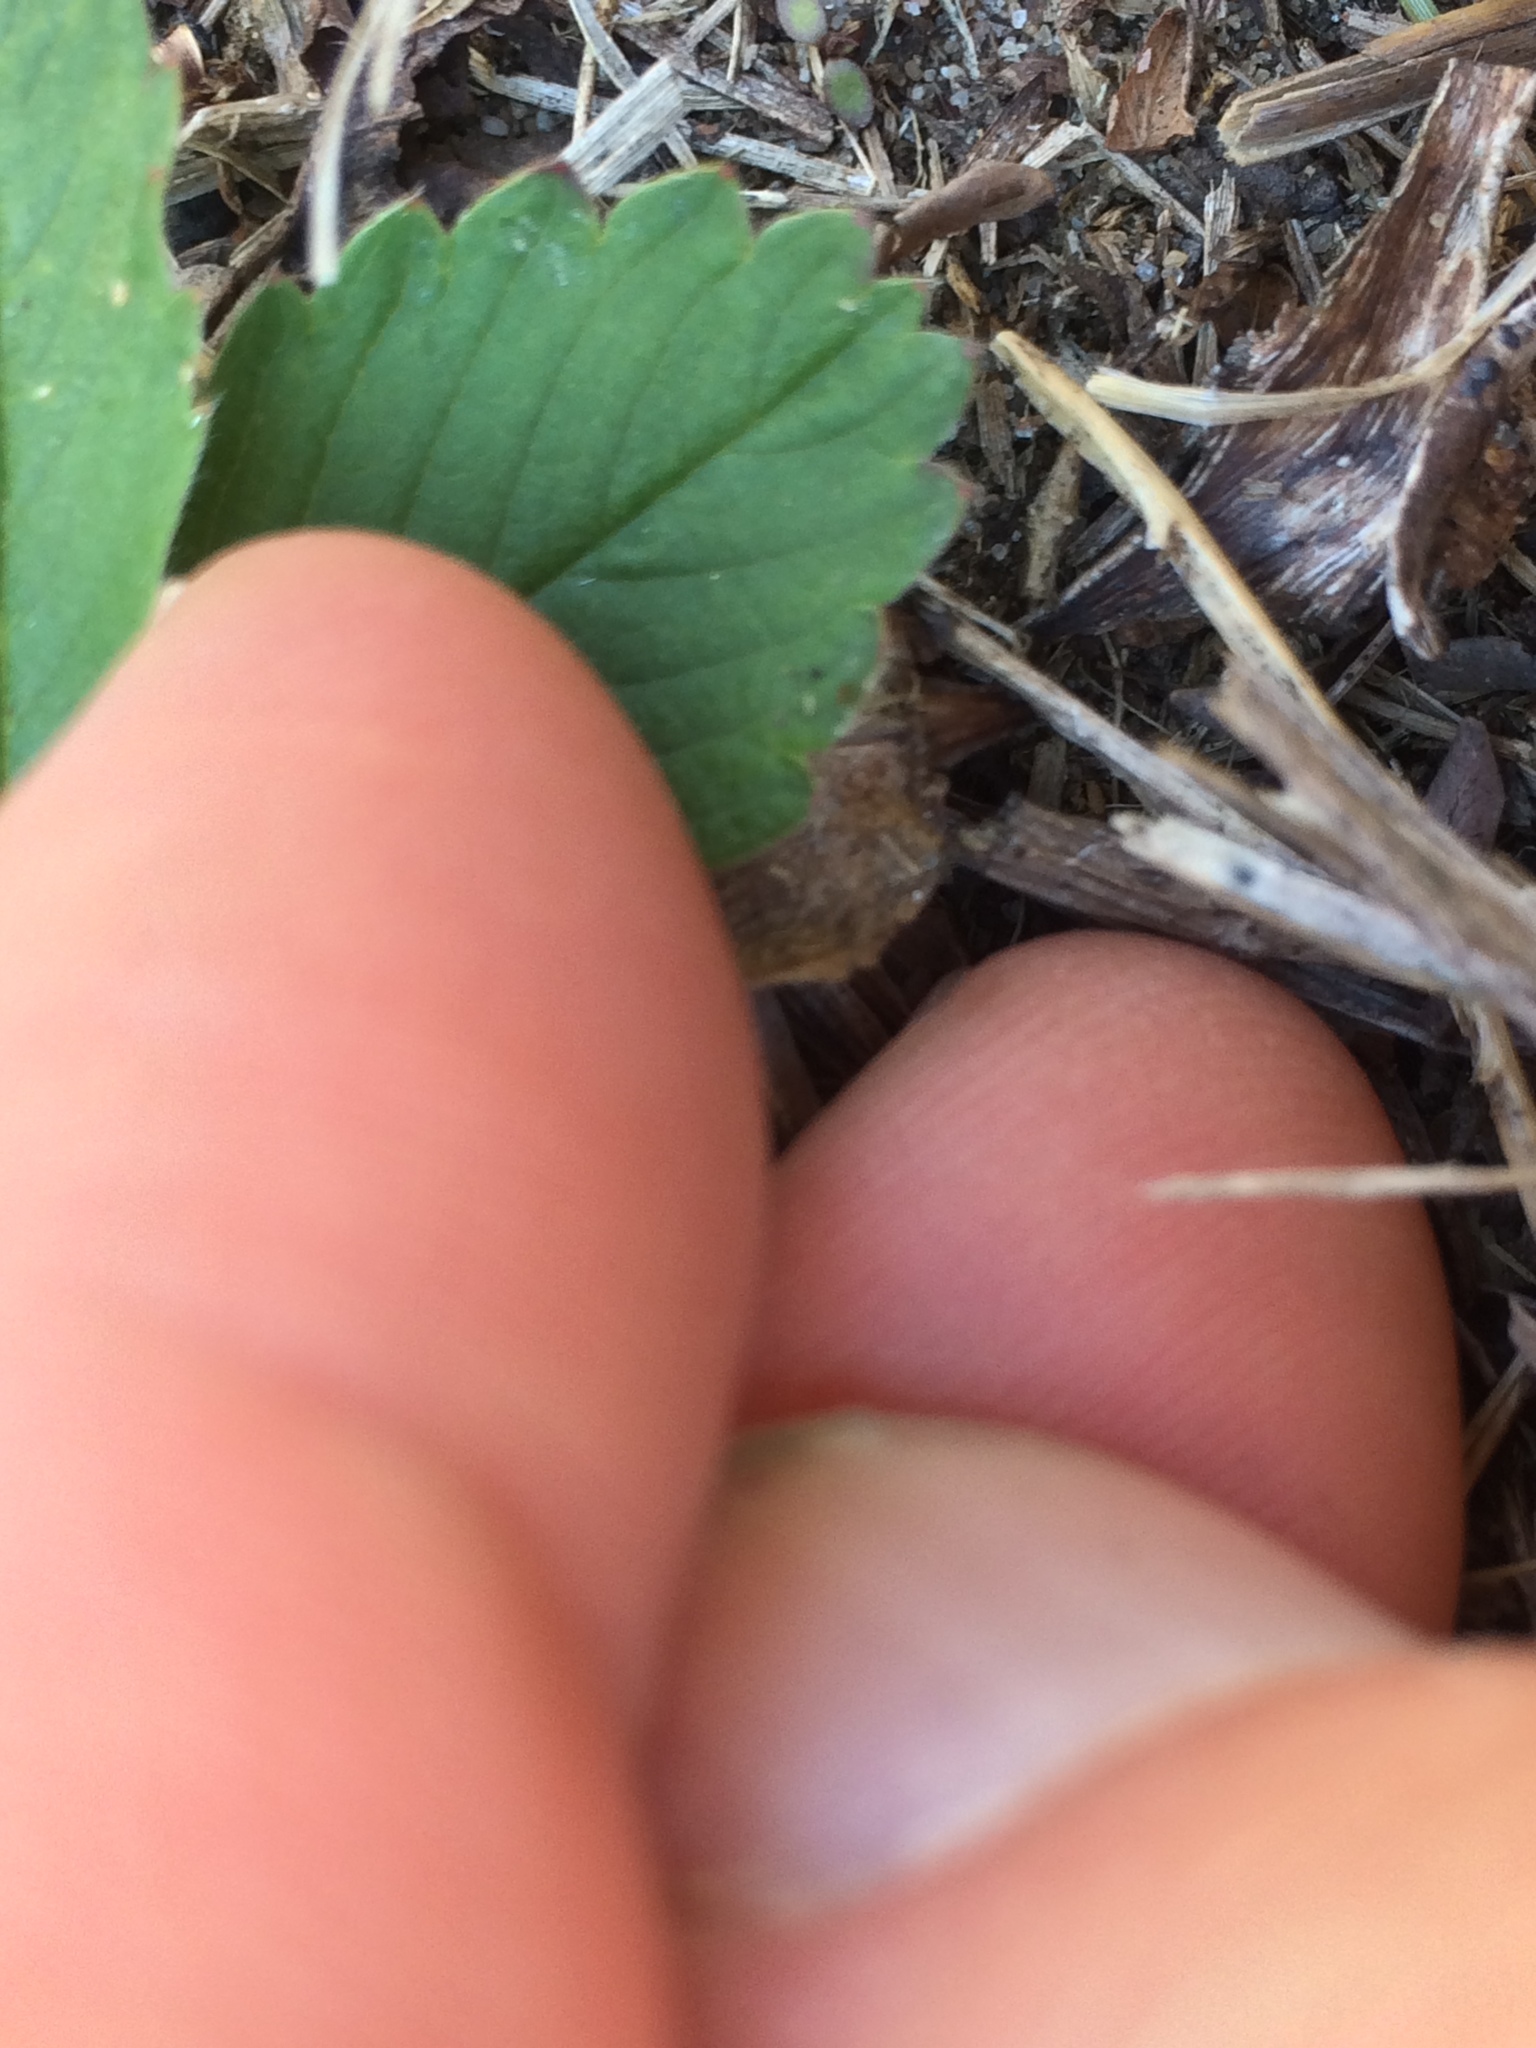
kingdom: Plantae
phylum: Tracheophyta
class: Magnoliopsida
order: Rosales
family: Rosaceae
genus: Fragaria
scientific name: Fragaria virginiana
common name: Thickleaved wild strawberry
